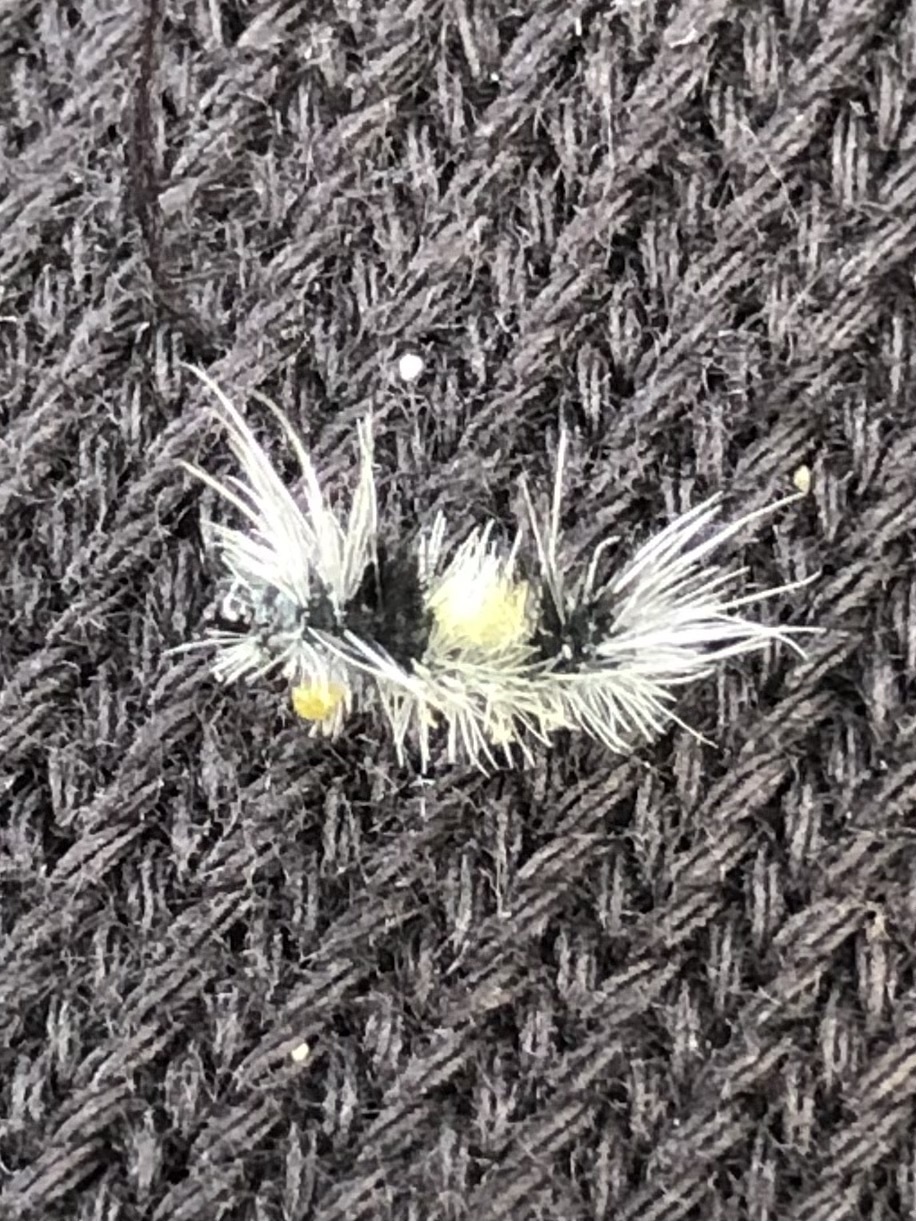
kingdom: Animalia
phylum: Arthropoda
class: Insecta
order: Lepidoptera
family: Erebidae
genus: Lophocampa
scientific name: Lophocampa maculata
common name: Spotted tussock moth
